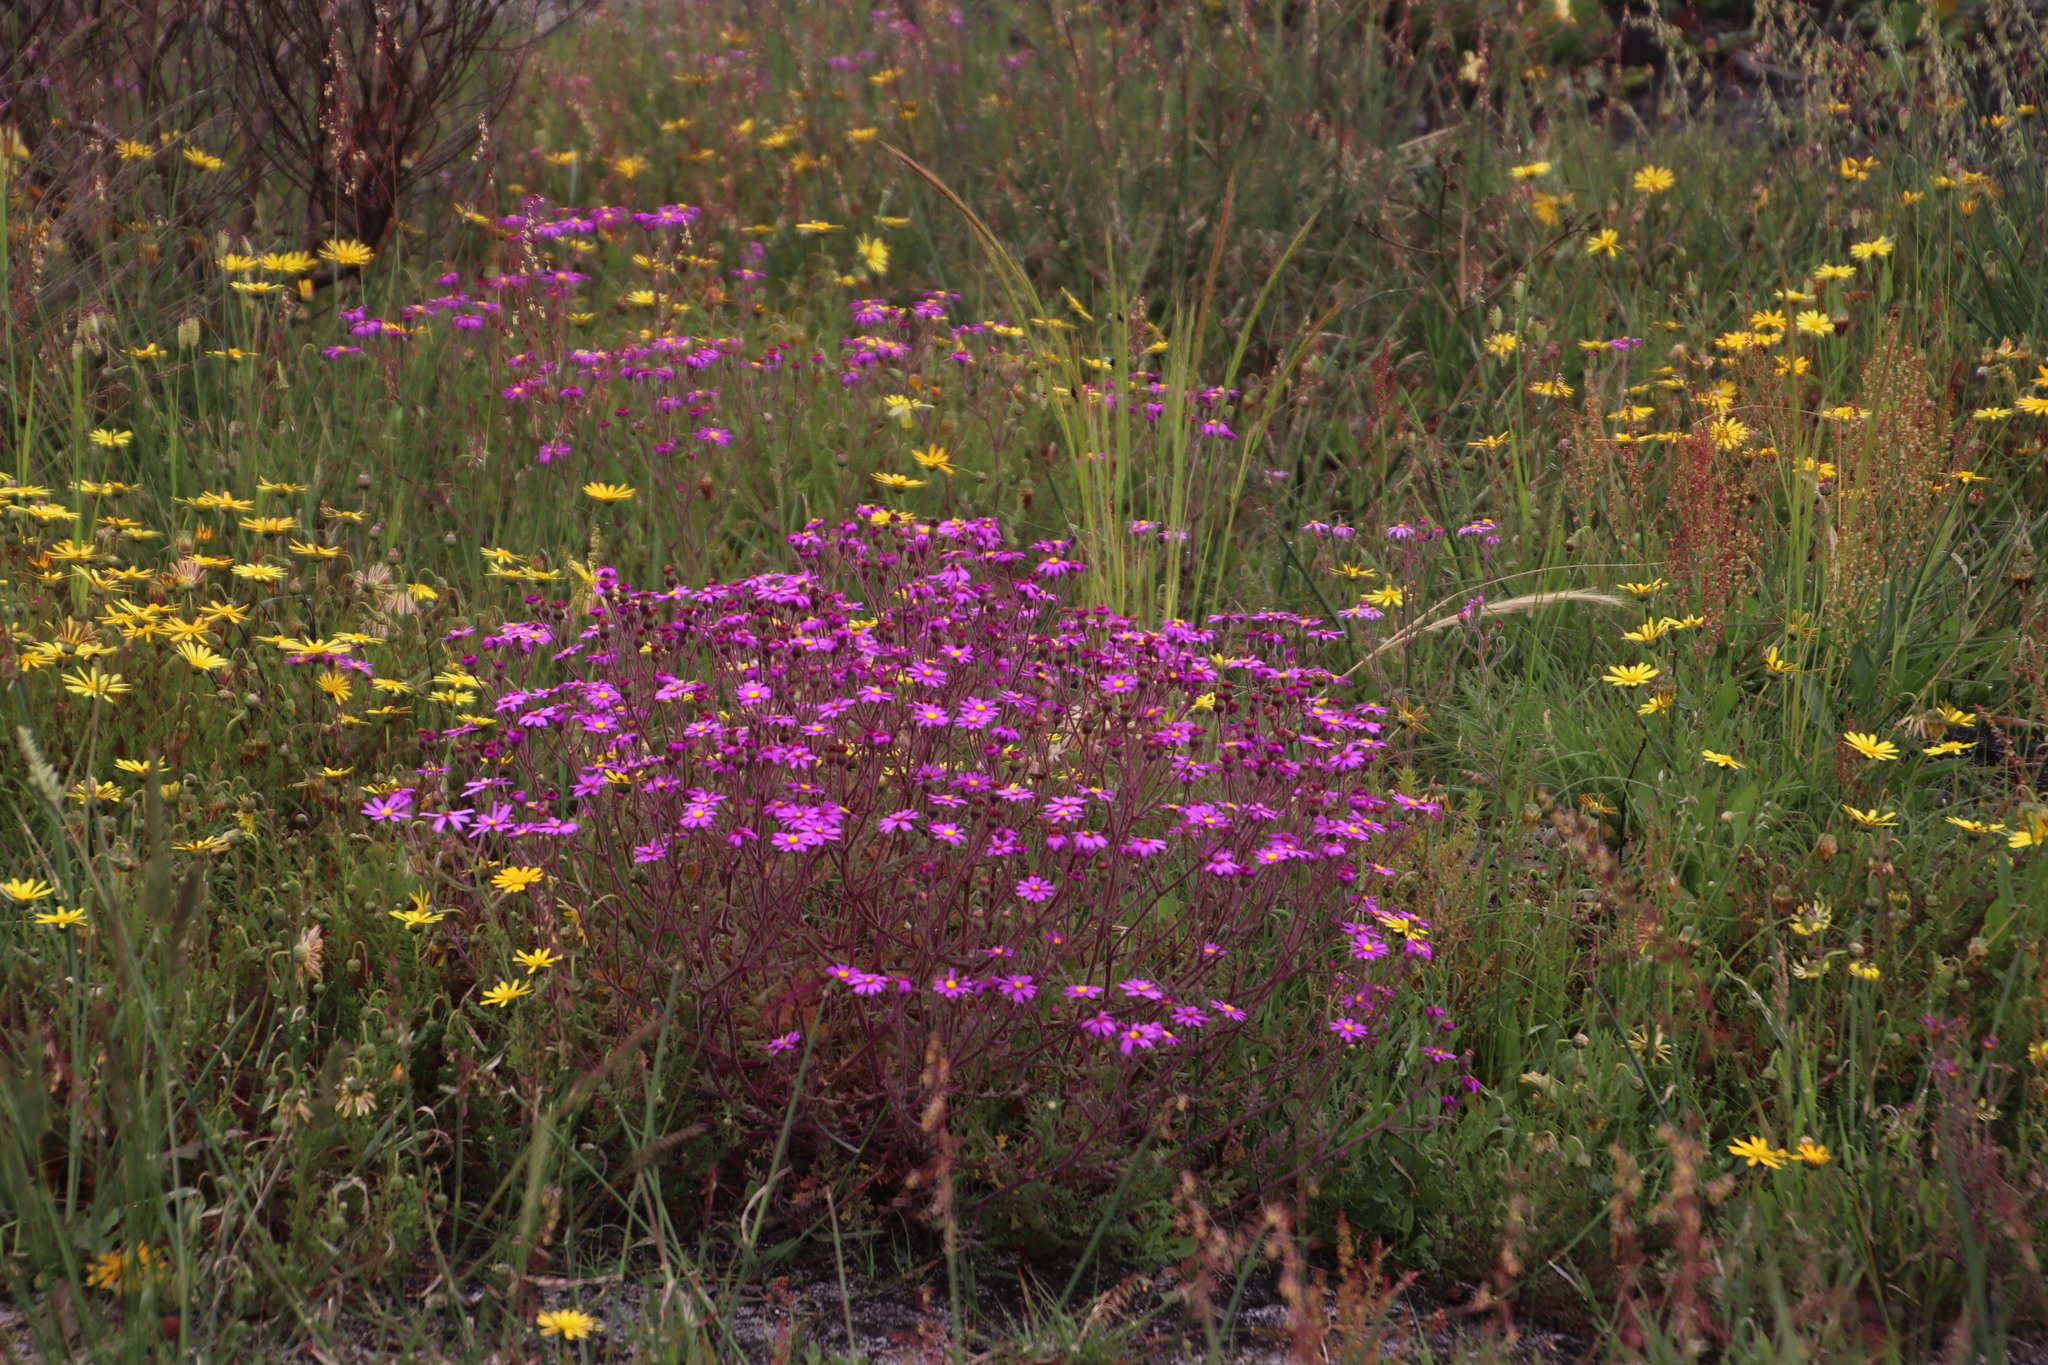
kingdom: Plantae
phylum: Tracheophyta
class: Magnoliopsida
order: Asterales
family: Asteraceae
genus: Senecio
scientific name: Senecio arenarius
